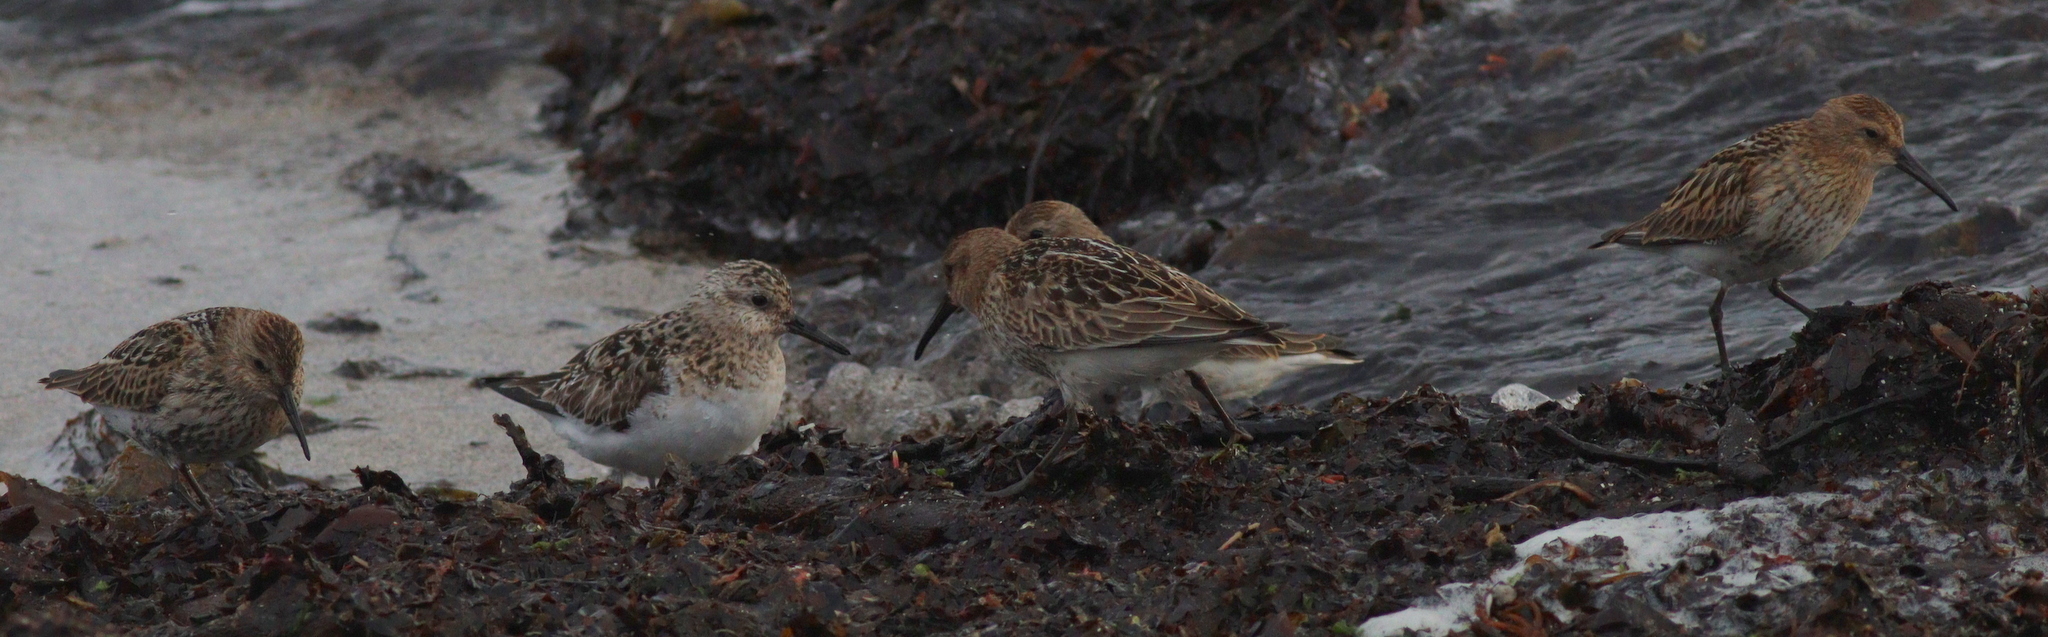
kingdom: Animalia
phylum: Chordata
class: Aves
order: Charadriiformes
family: Scolopacidae
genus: Calidris
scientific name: Calidris alpina
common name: Dunlin
